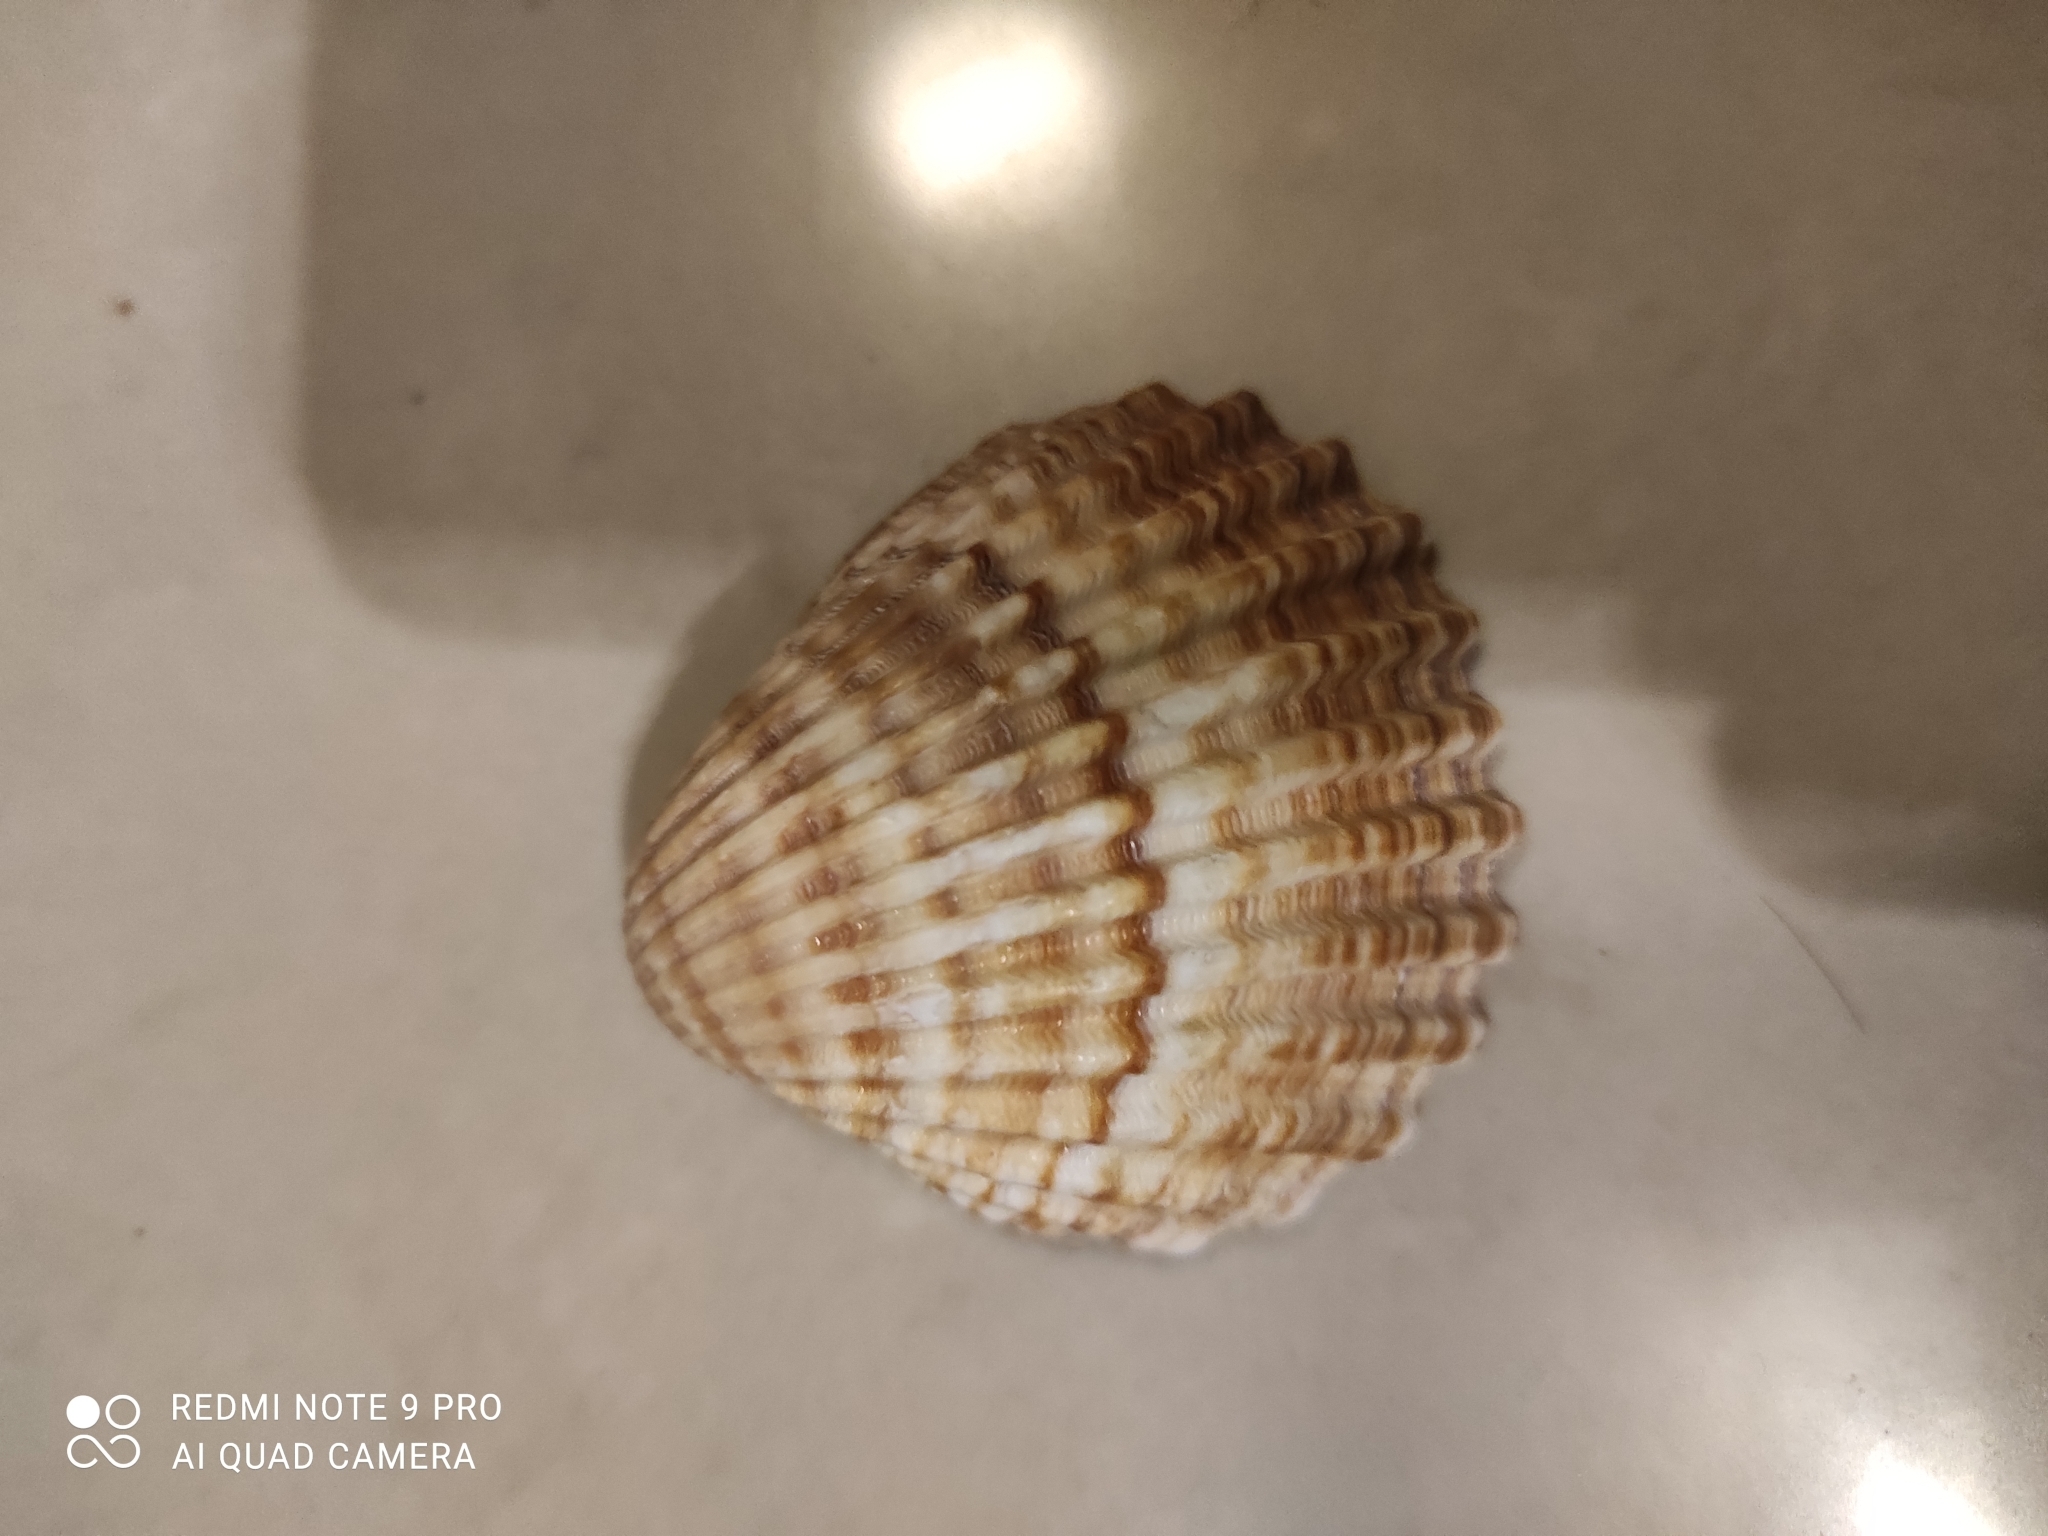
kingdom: Animalia
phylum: Mollusca
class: Bivalvia
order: Cardiida
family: Cardiidae
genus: Acanthocardia
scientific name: Acanthocardia tuberculata
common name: Rough cockle
